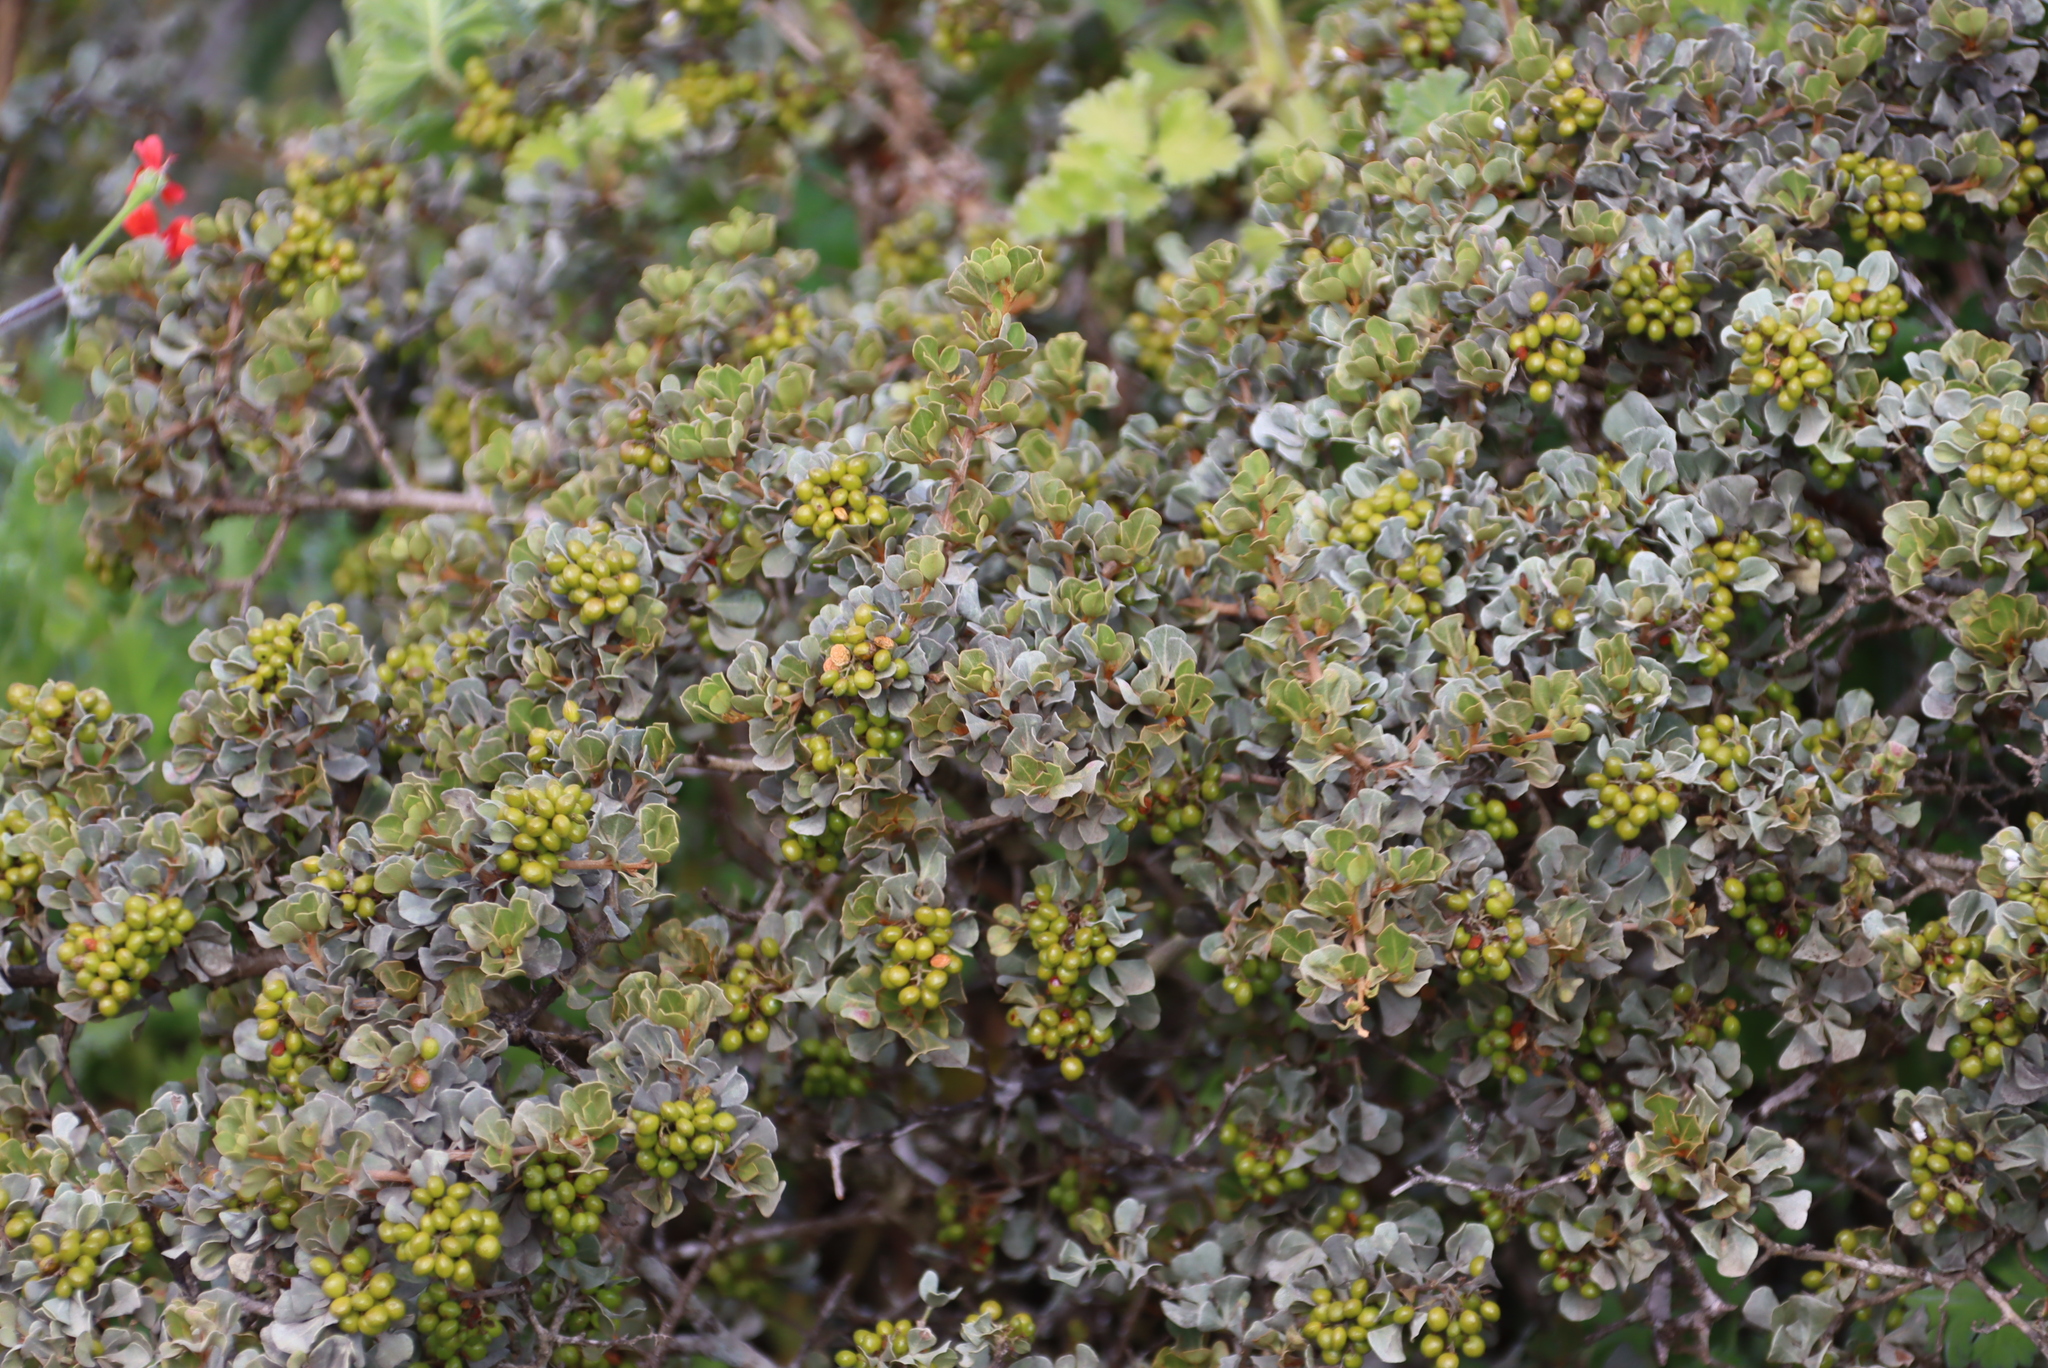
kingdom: Plantae
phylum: Tracheophyta
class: Magnoliopsida
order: Sapindales
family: Anacardiaceae
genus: Searsia
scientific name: Searsia glauca
